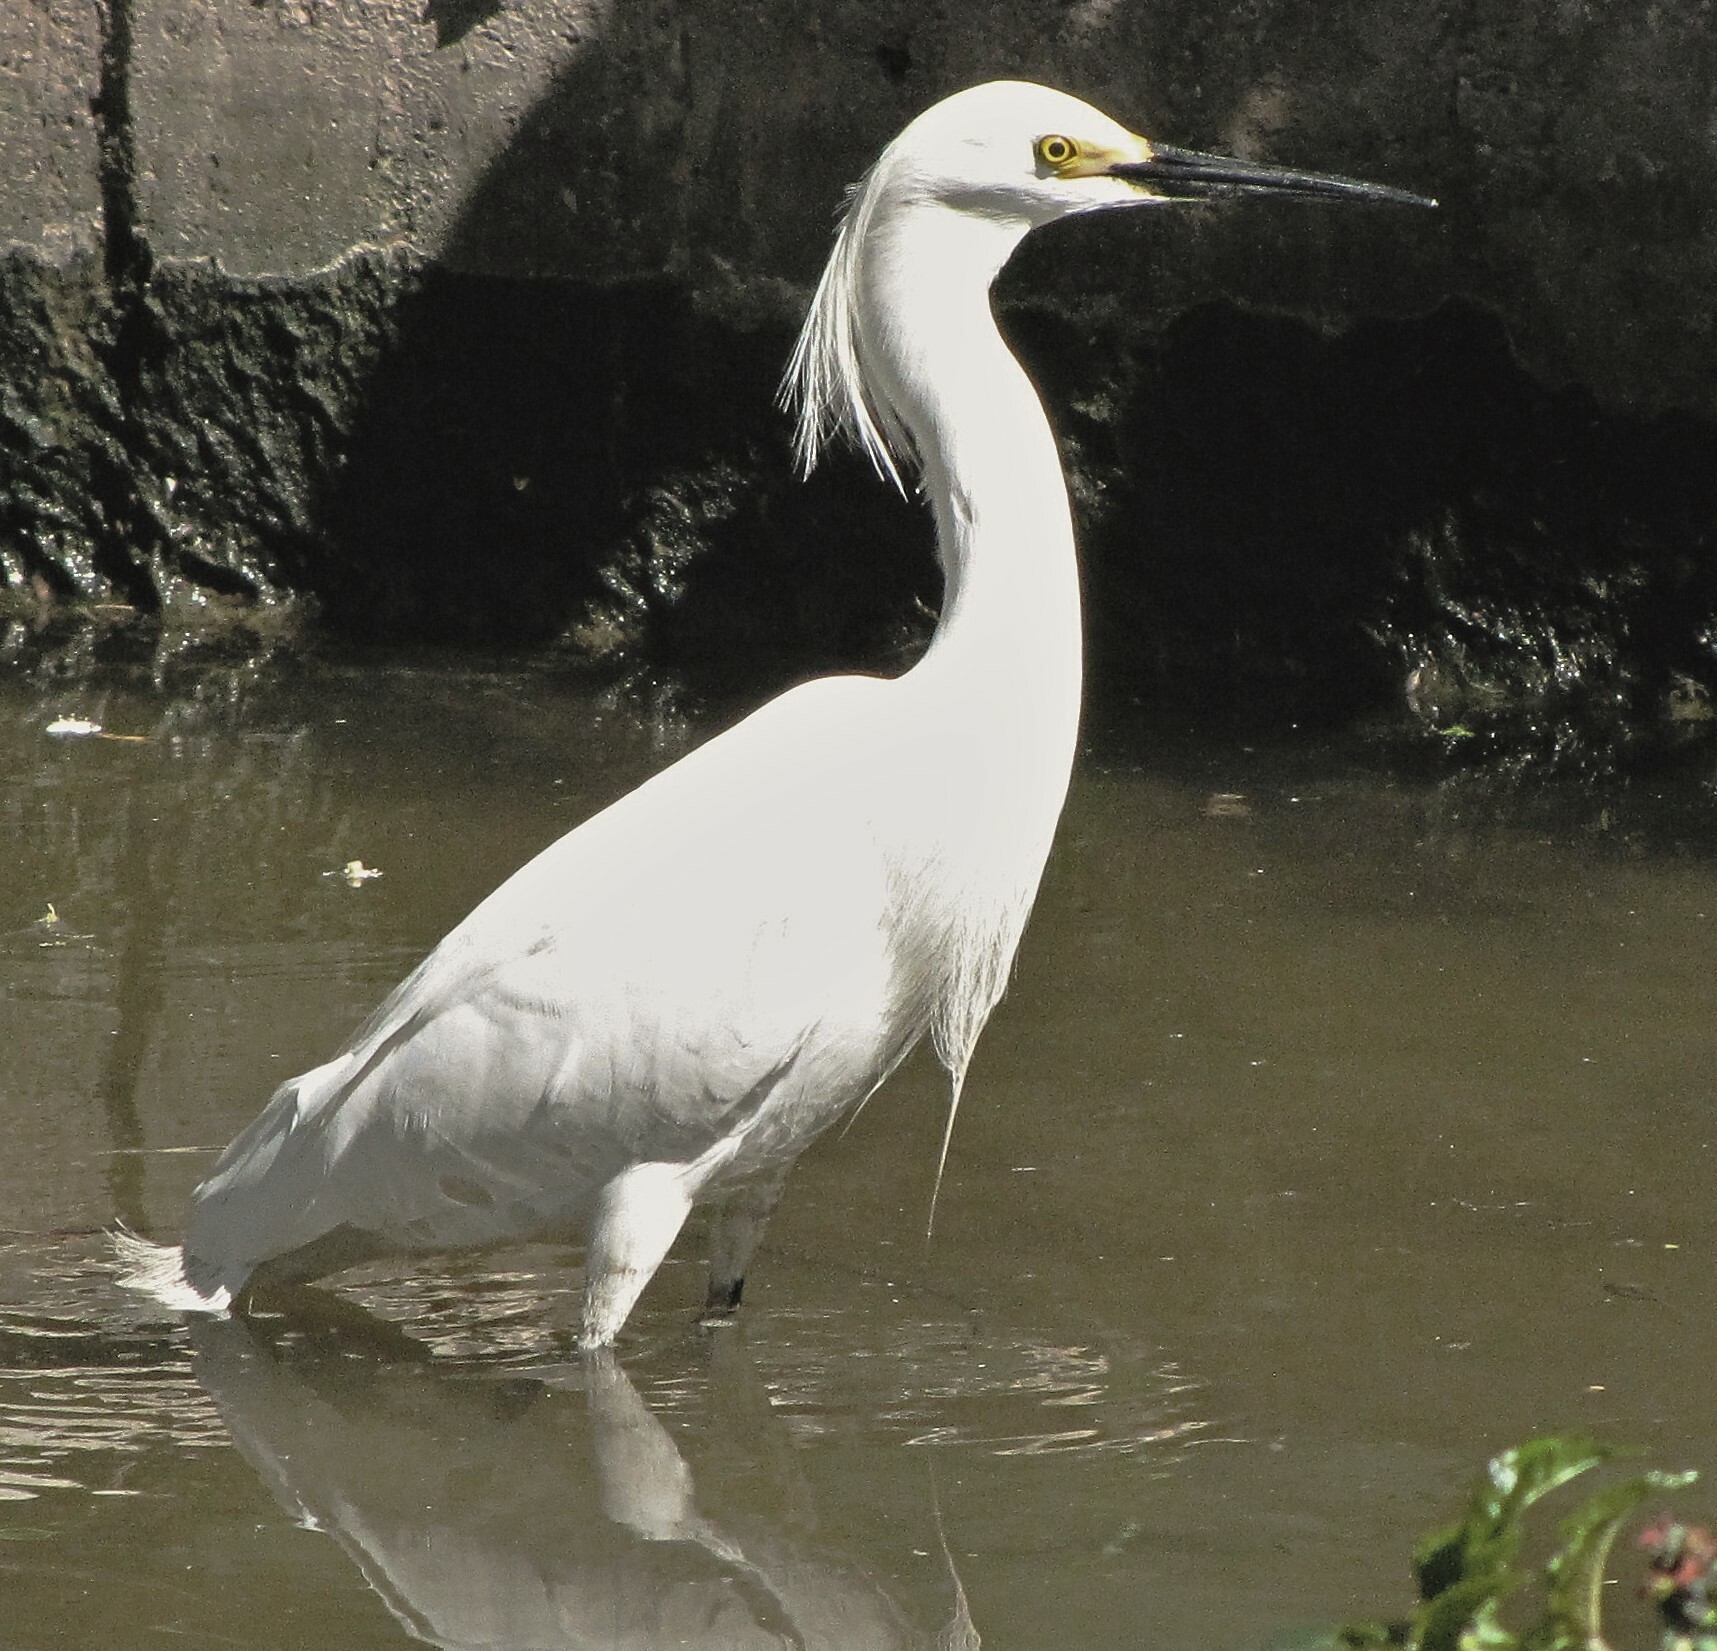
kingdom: Animalia
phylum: Chordata
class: Aves
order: Pelecaniformes
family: Ardeidae
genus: Egretta
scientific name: Egretta thula
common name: Snowy egret
